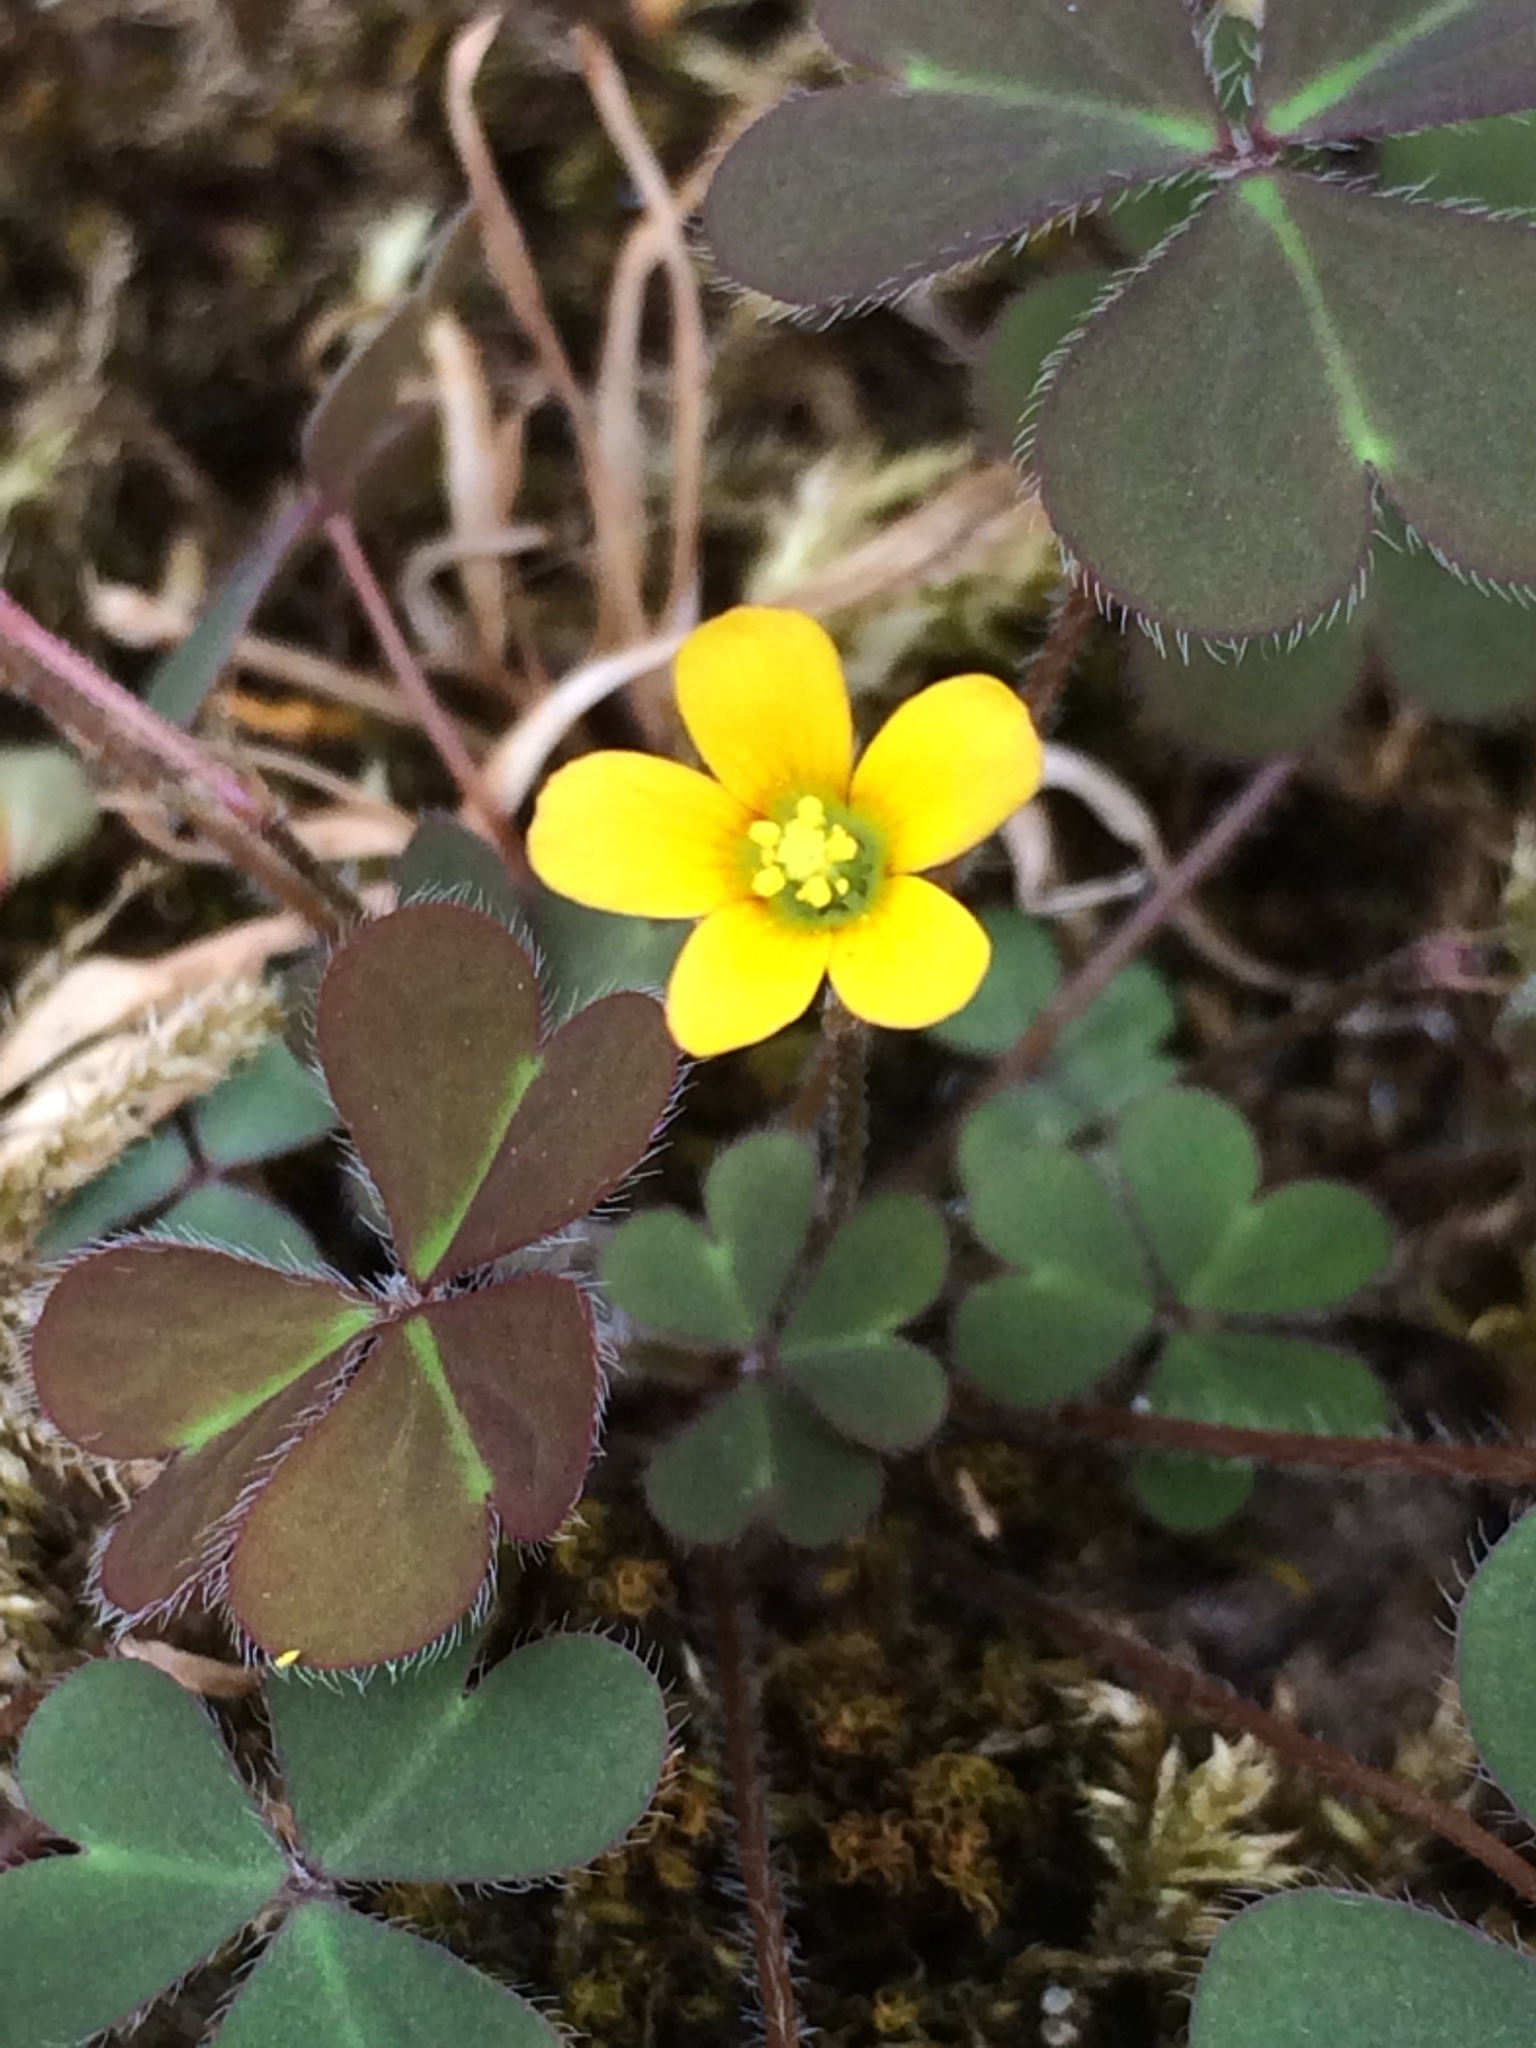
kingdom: Plantae
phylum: Tracheophyta
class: Magnoliopsida
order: Oxalidales
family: Oxalidaceae
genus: Oxalis
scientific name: Oxalis corniculata
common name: Procumbent yellow-sorrel
